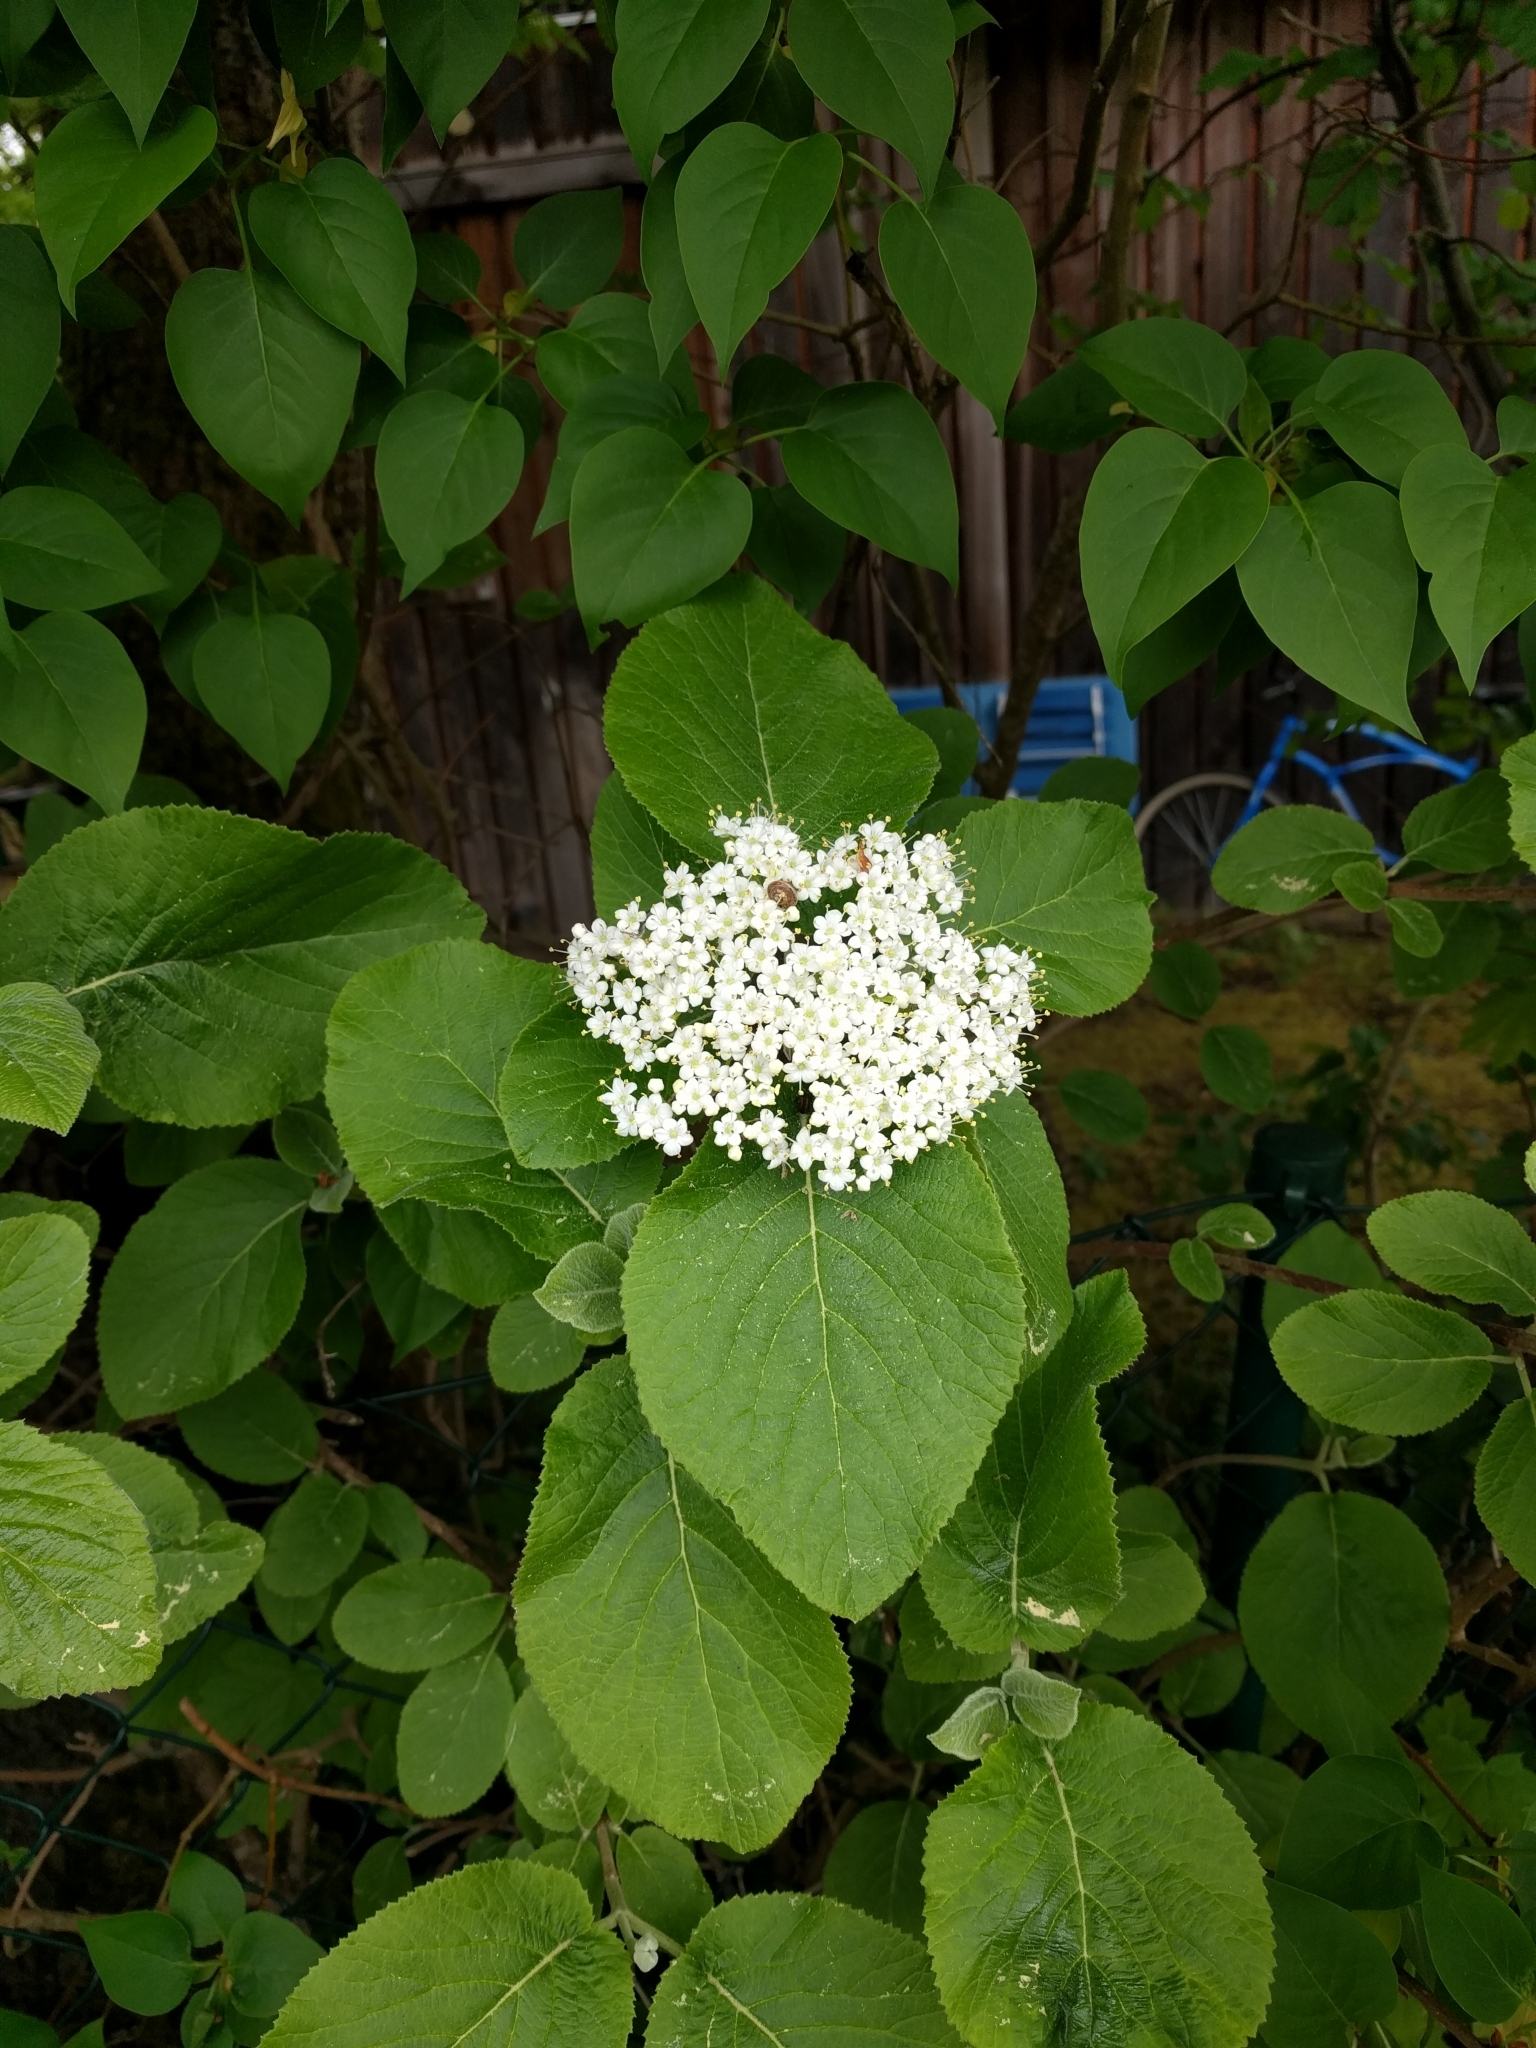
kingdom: Plantae
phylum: Tracheophyta
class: Magnoliopsida
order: Dipsacales
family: Viburnaceae
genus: Viburnum
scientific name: Viburnum lantana
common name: Wayfaring tree
